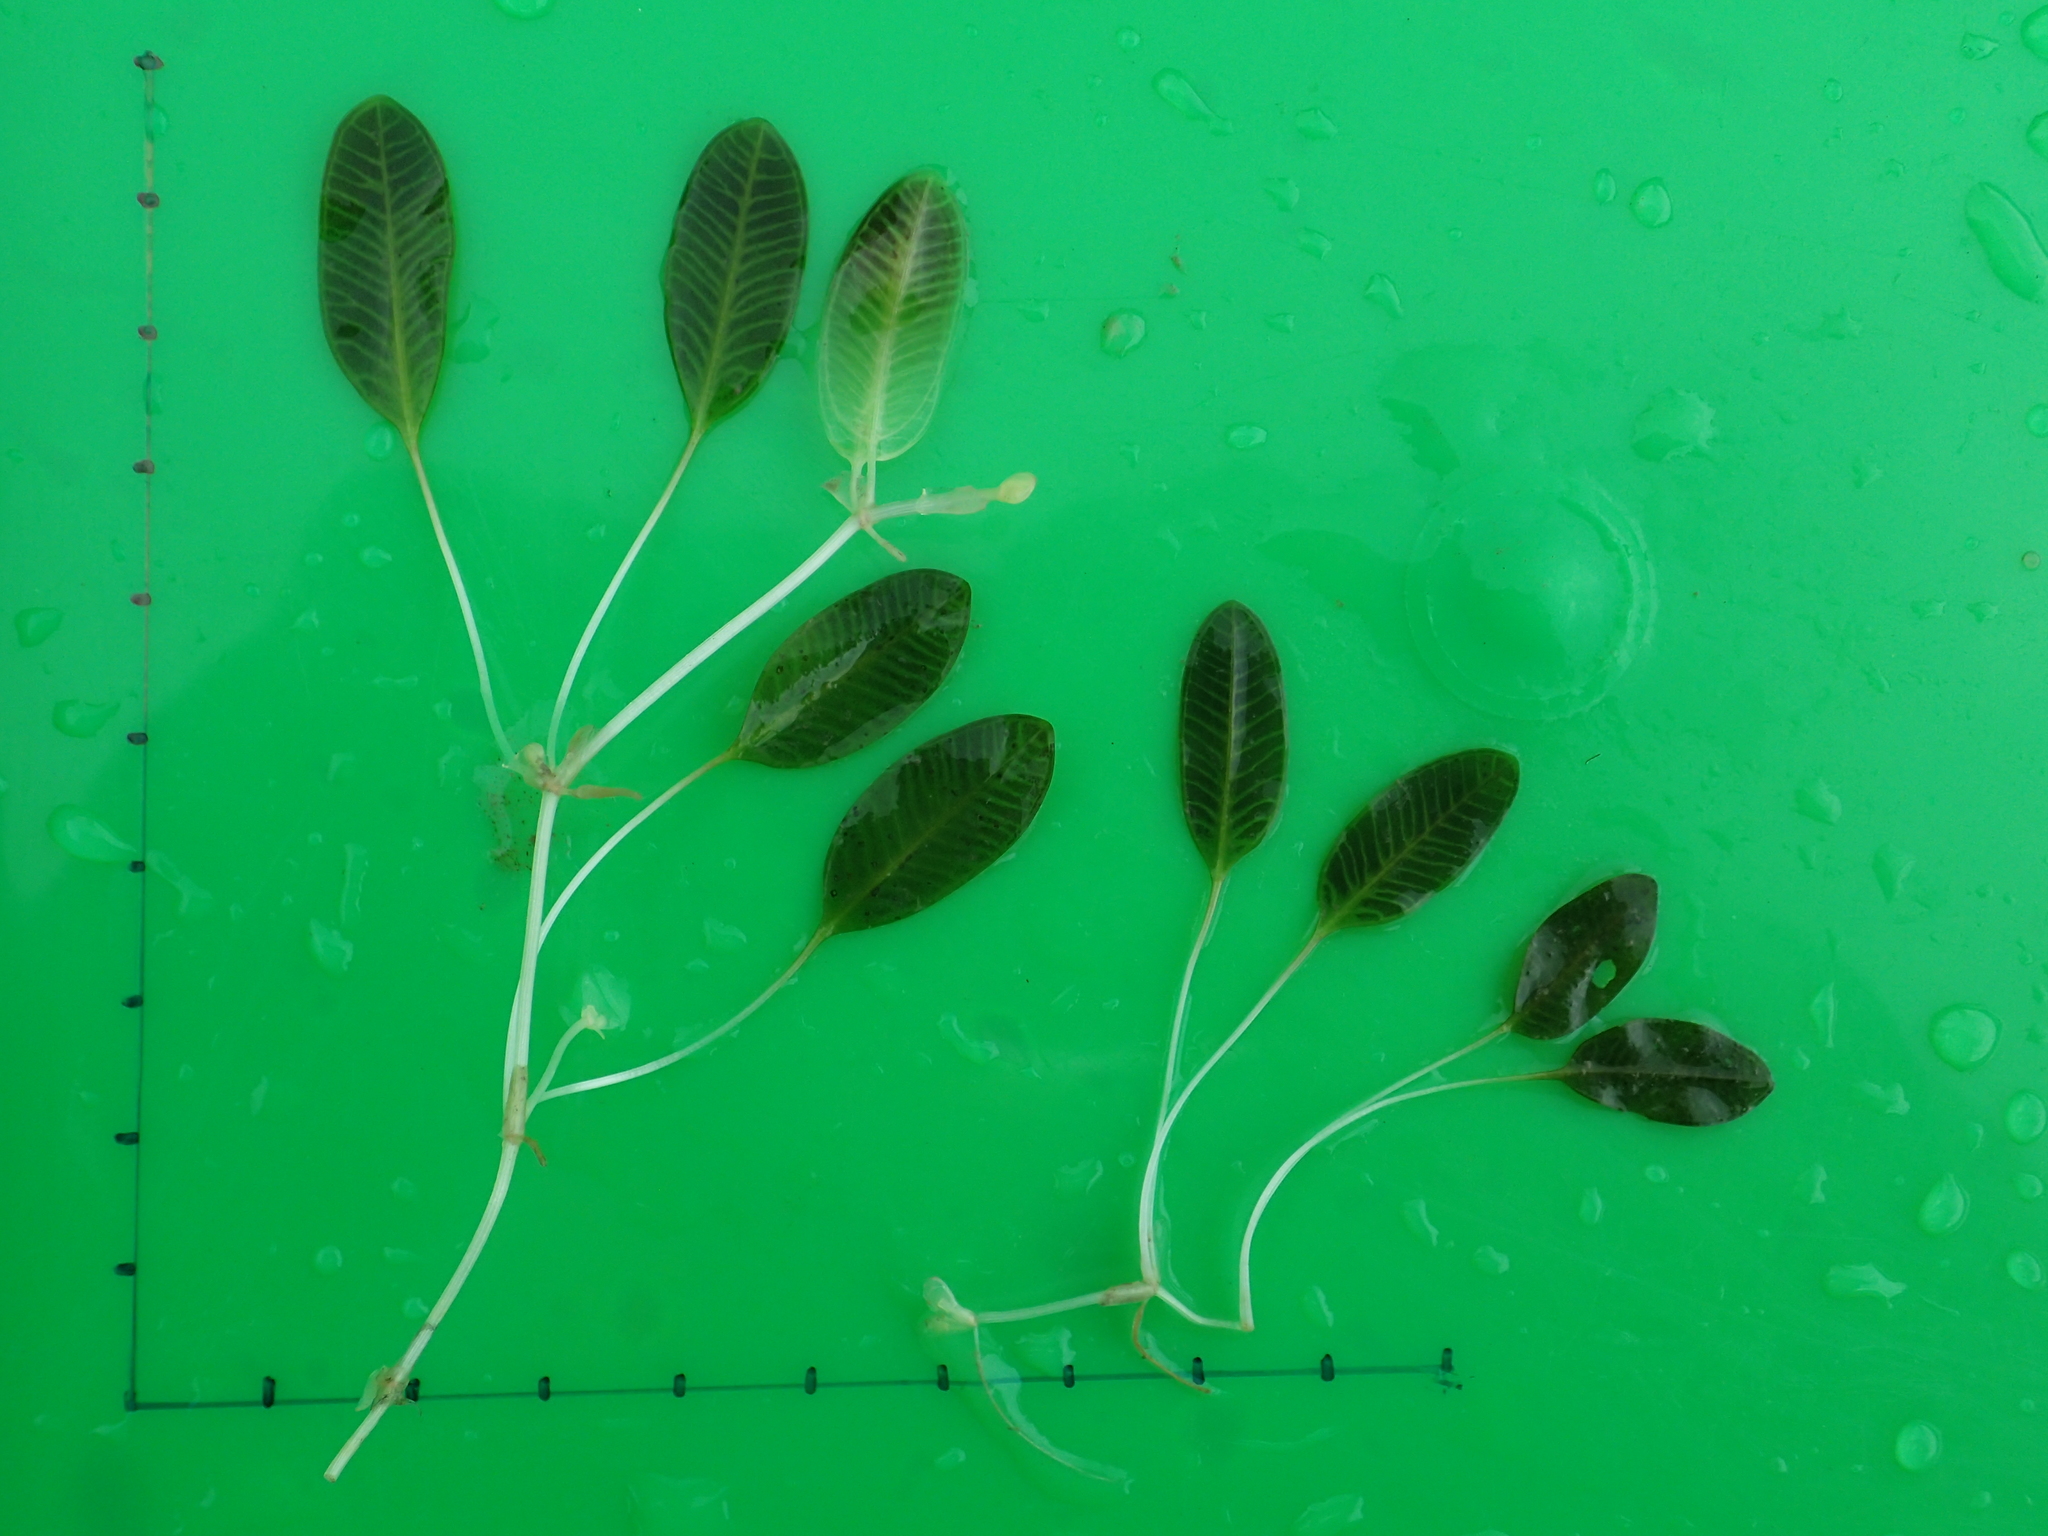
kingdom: Plantae
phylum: Tracheophyta
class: Liliopsida
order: Alismatales
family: Hydrocharitaceae
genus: Halophila
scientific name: Halophila ovalis
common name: Species code: ho
